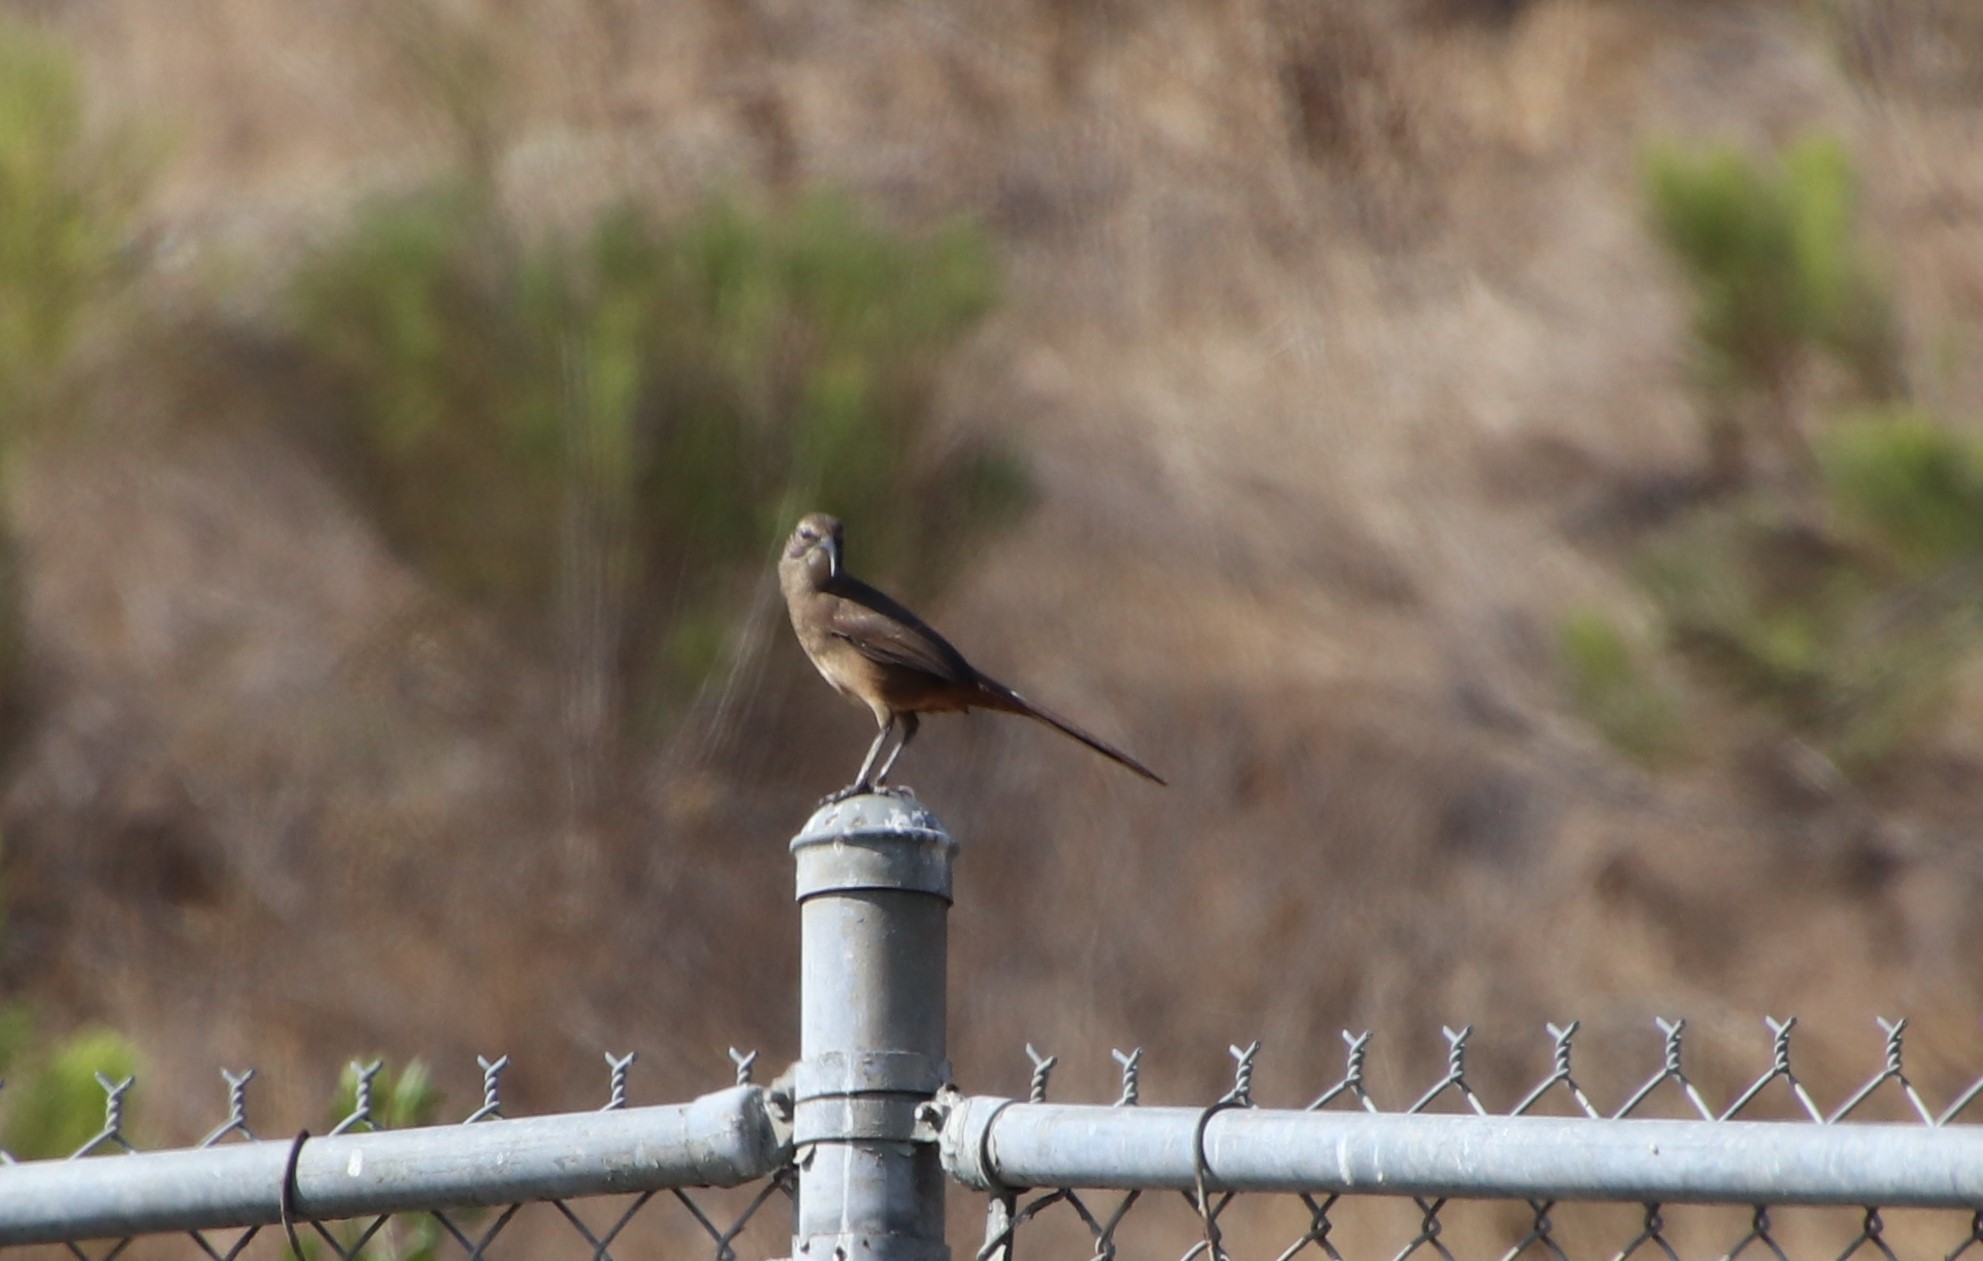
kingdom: Animalia
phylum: Chordata
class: Aves
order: Passeriformes
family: Mimidae
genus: Toxostoma
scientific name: Toxostoma redivivum
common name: California thrasher
